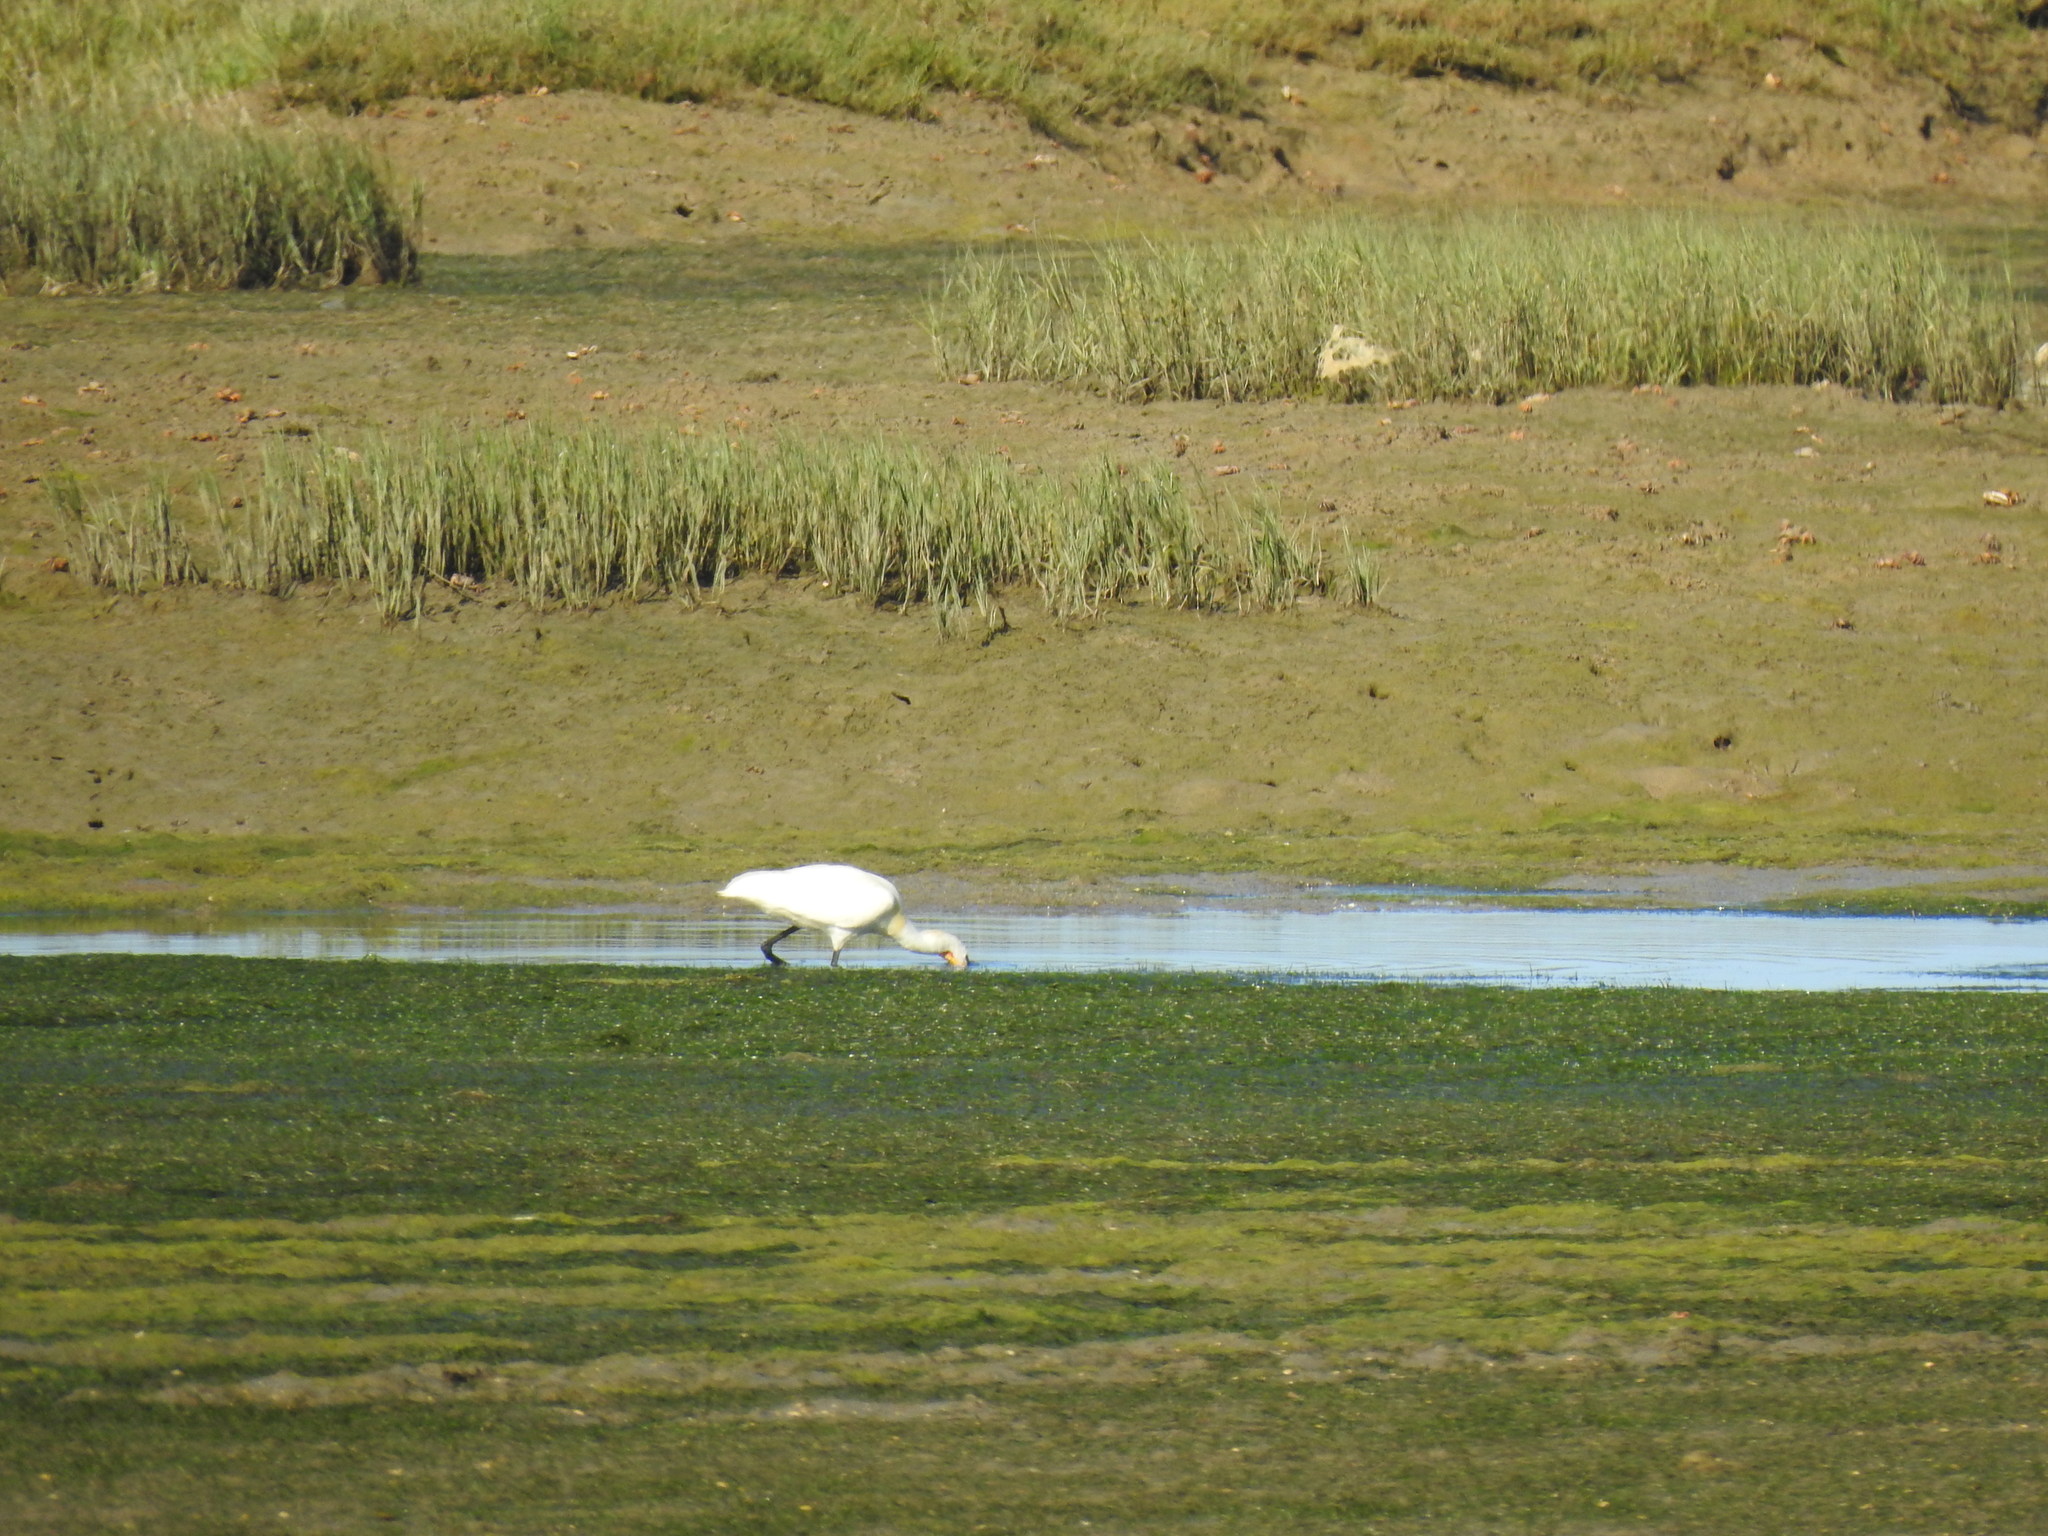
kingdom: Animalia
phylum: Chordata
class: Aves
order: Pelecaniformes
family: Threskiornithidae
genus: Platalea
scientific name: Platalea leucorodia
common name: Eurasian spoonbill
